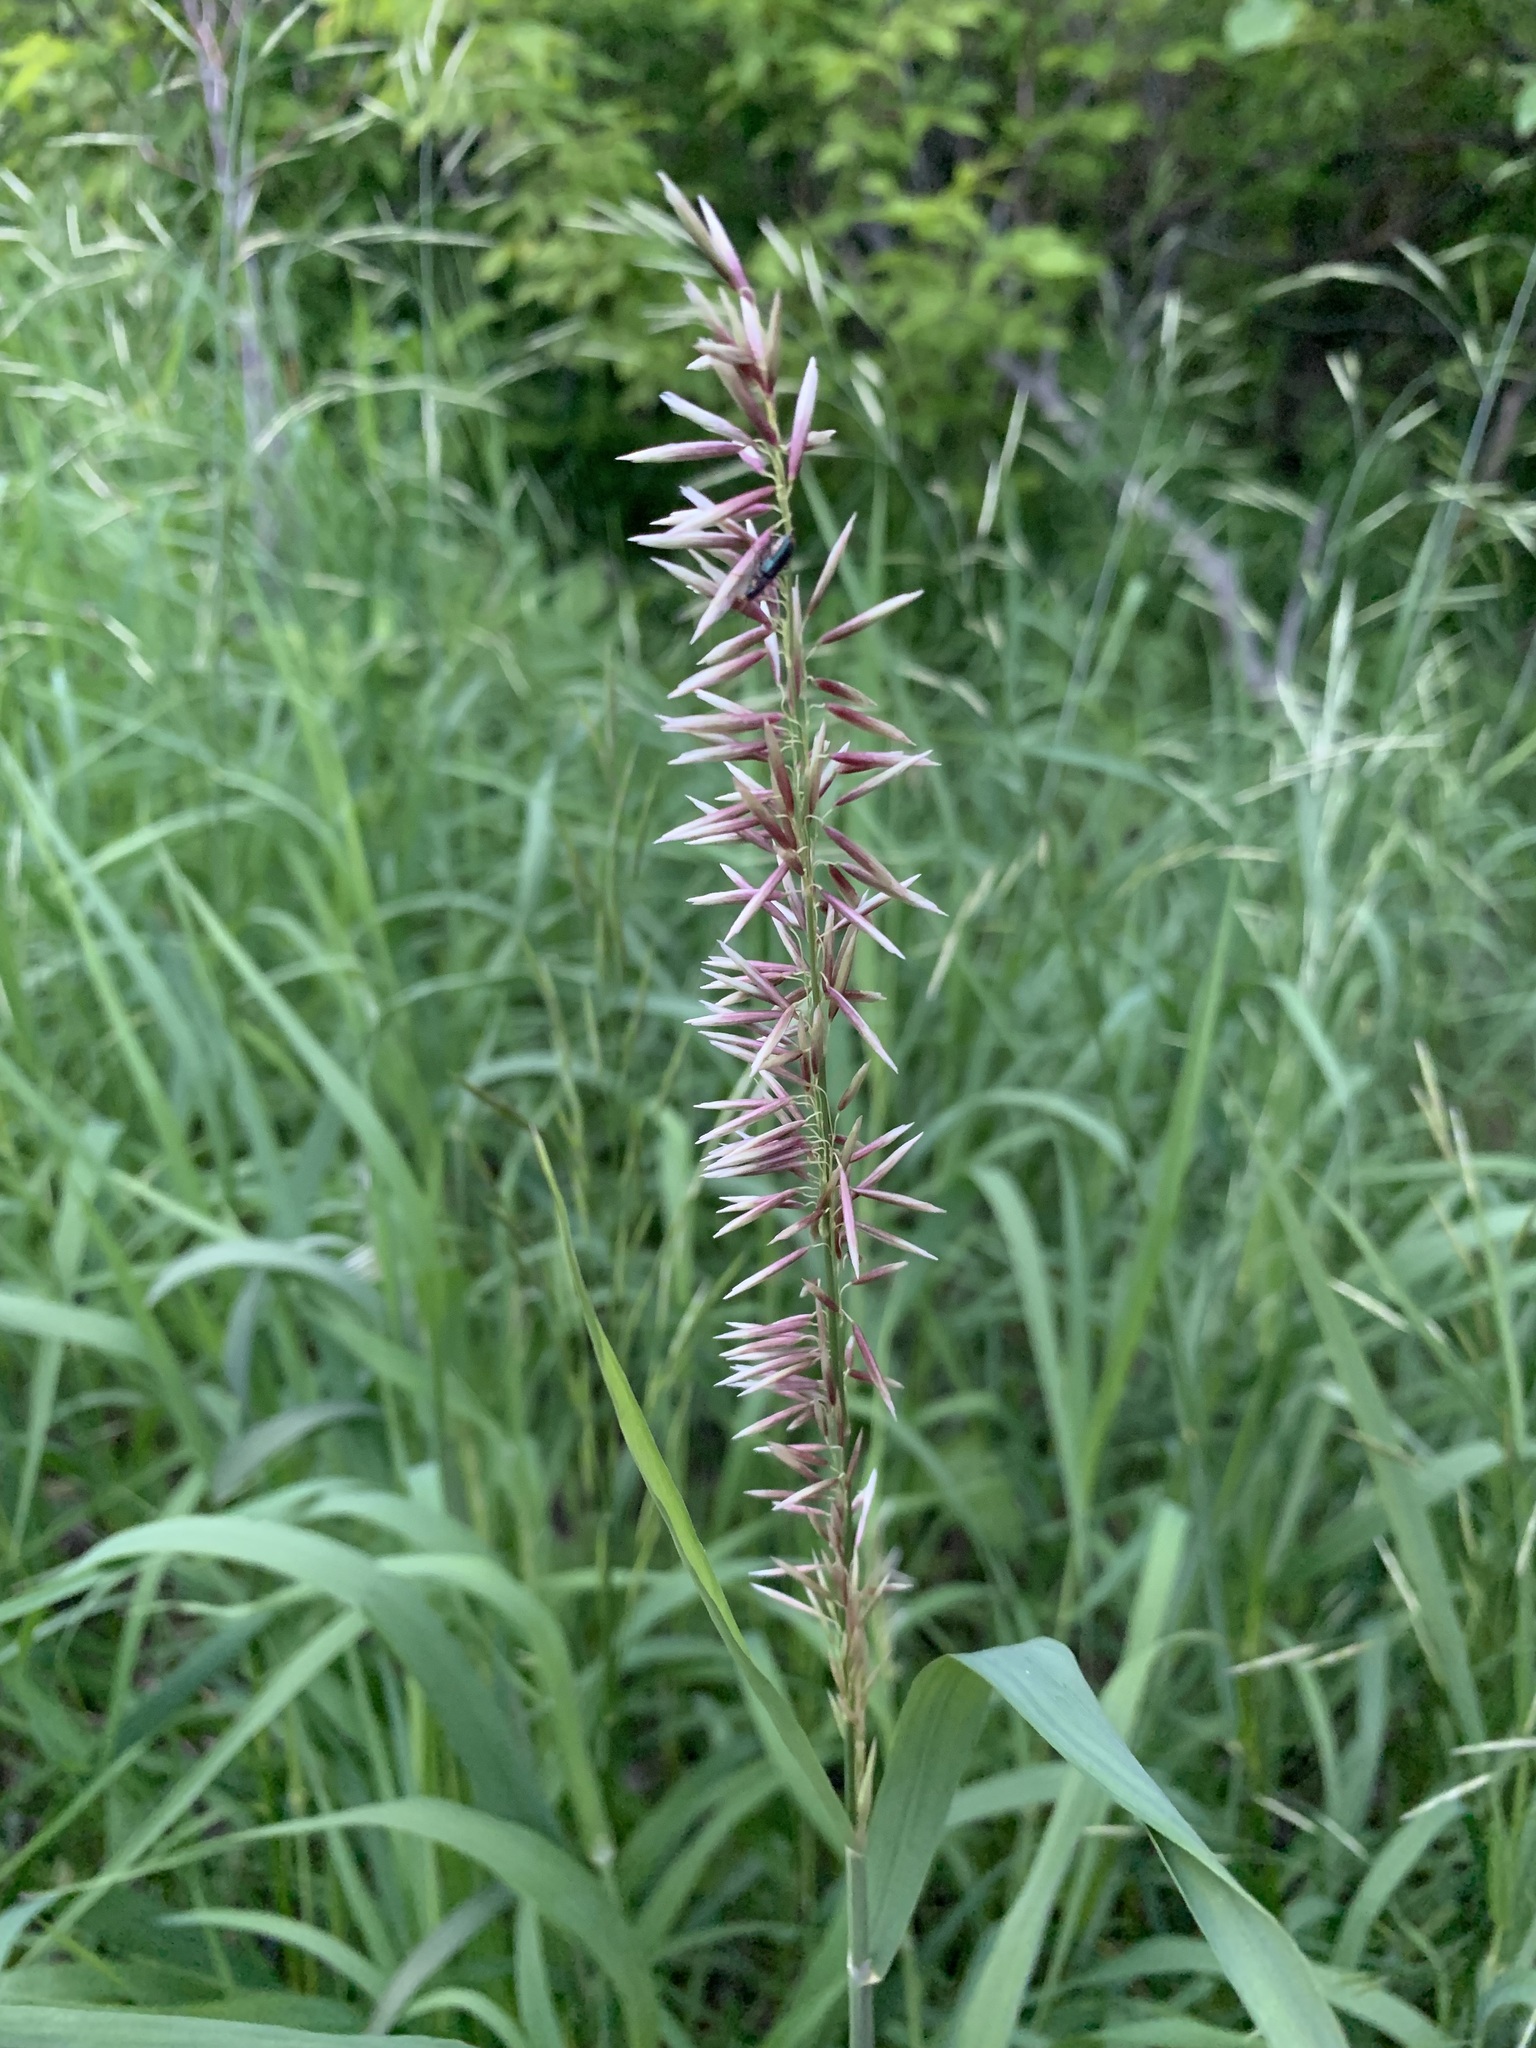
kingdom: Plantae
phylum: Tracheophyta
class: Liliopsida
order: Poales
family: Poaceae
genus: Melica
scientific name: Melica altissima
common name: Siberian melicgrass
